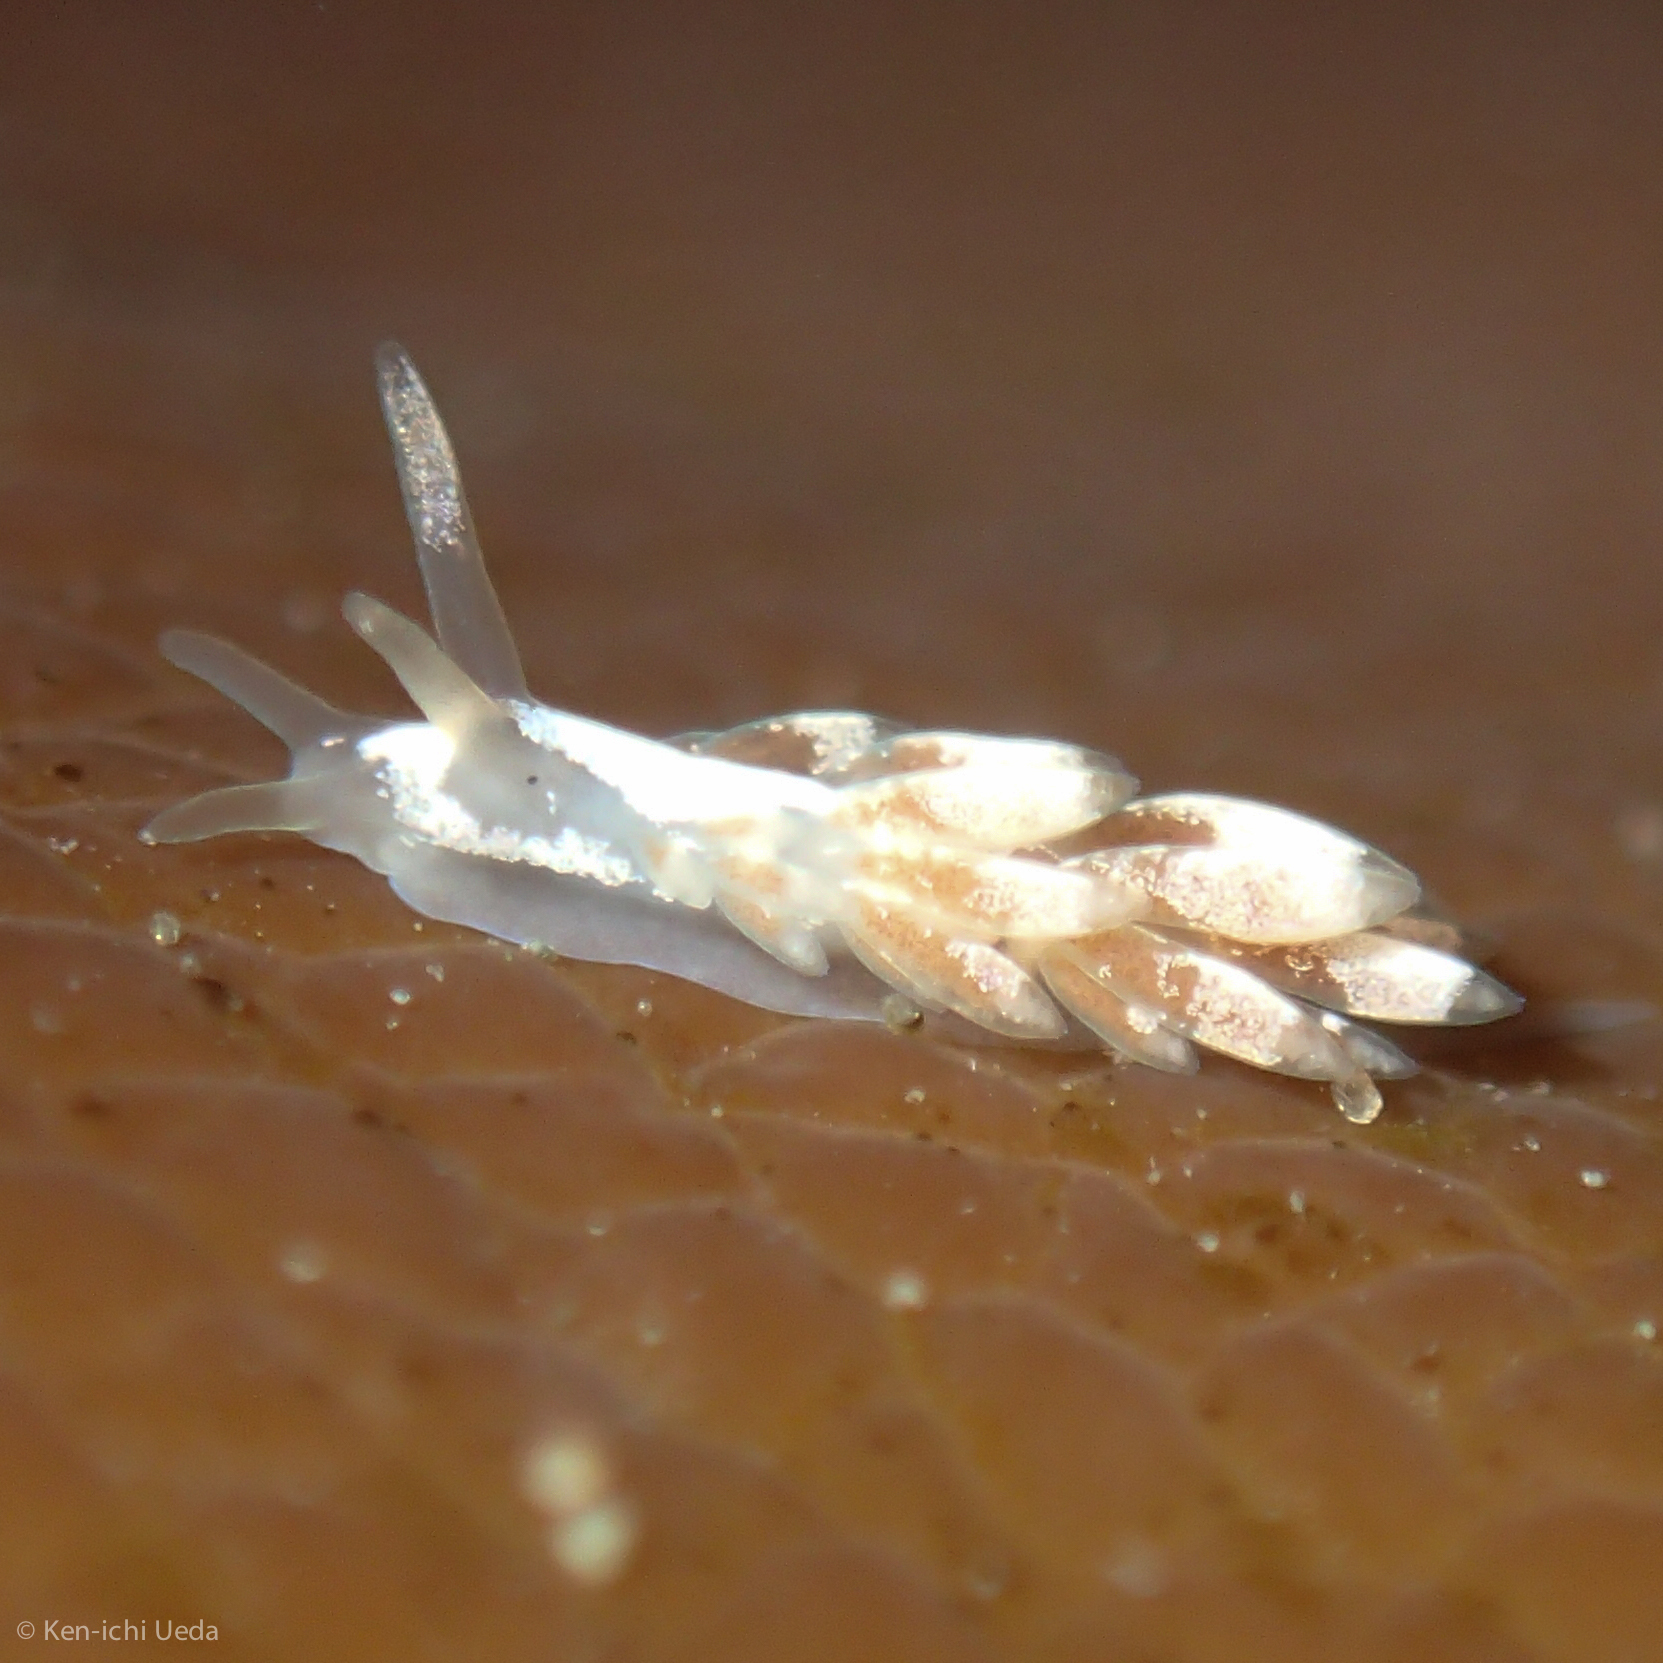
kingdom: Animalia
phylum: Mollusca
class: Gastropoda
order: Nudibranchia
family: Trinchesiidae
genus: Trinchesia
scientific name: Trinchesia albocrusta
